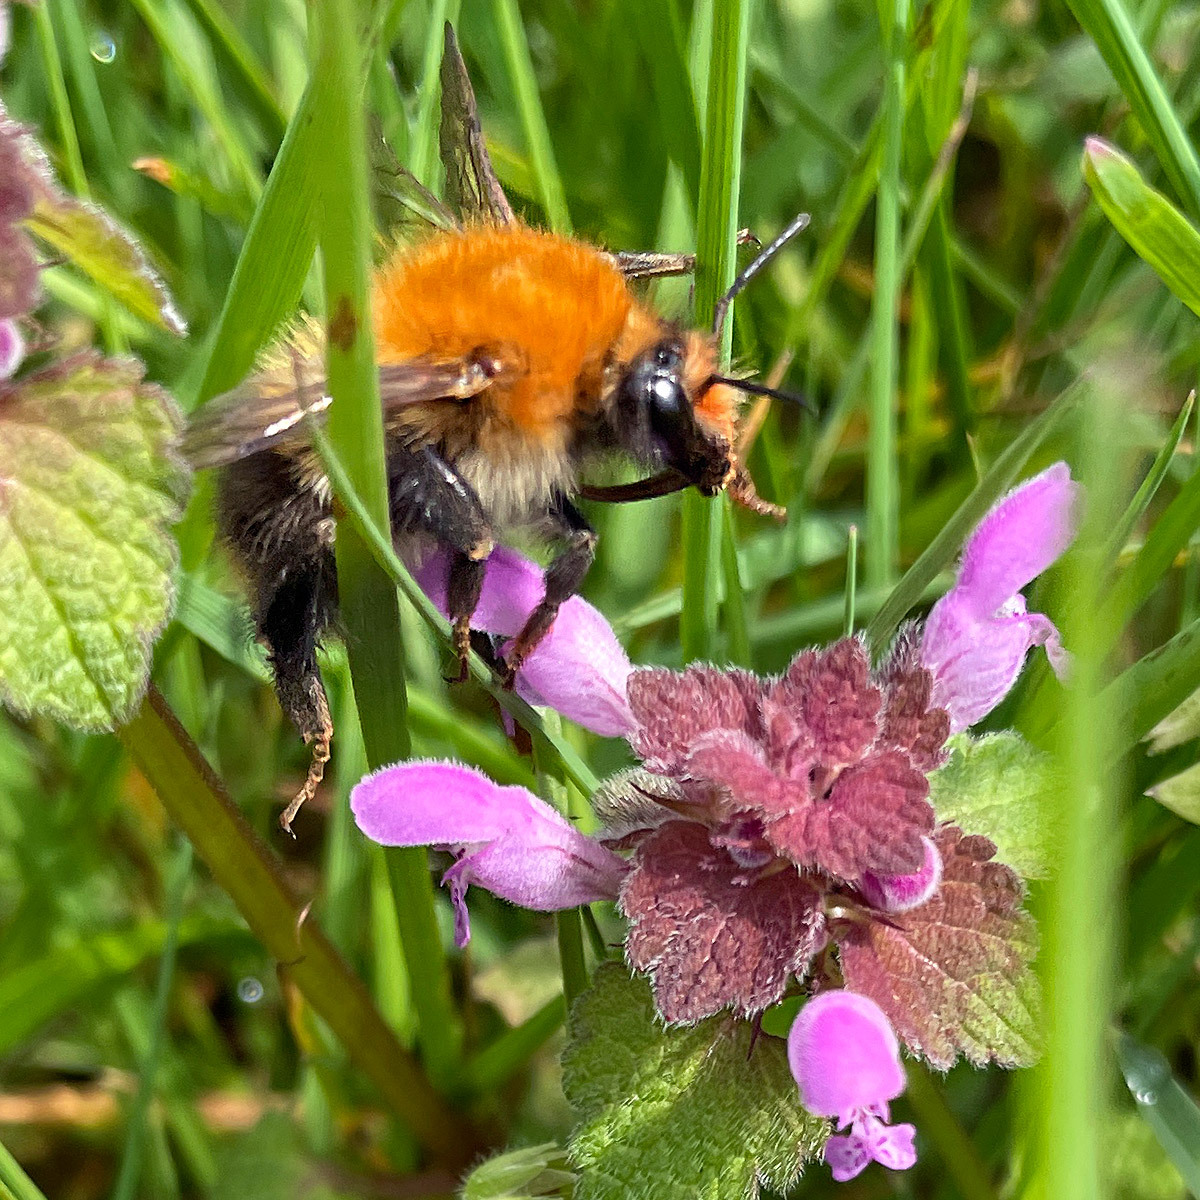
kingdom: Animalia
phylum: Arthropoda
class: Insecta
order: Hymenoptera
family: Apidae
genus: Bombus
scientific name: Bombus pascuorum
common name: Common carder bee
